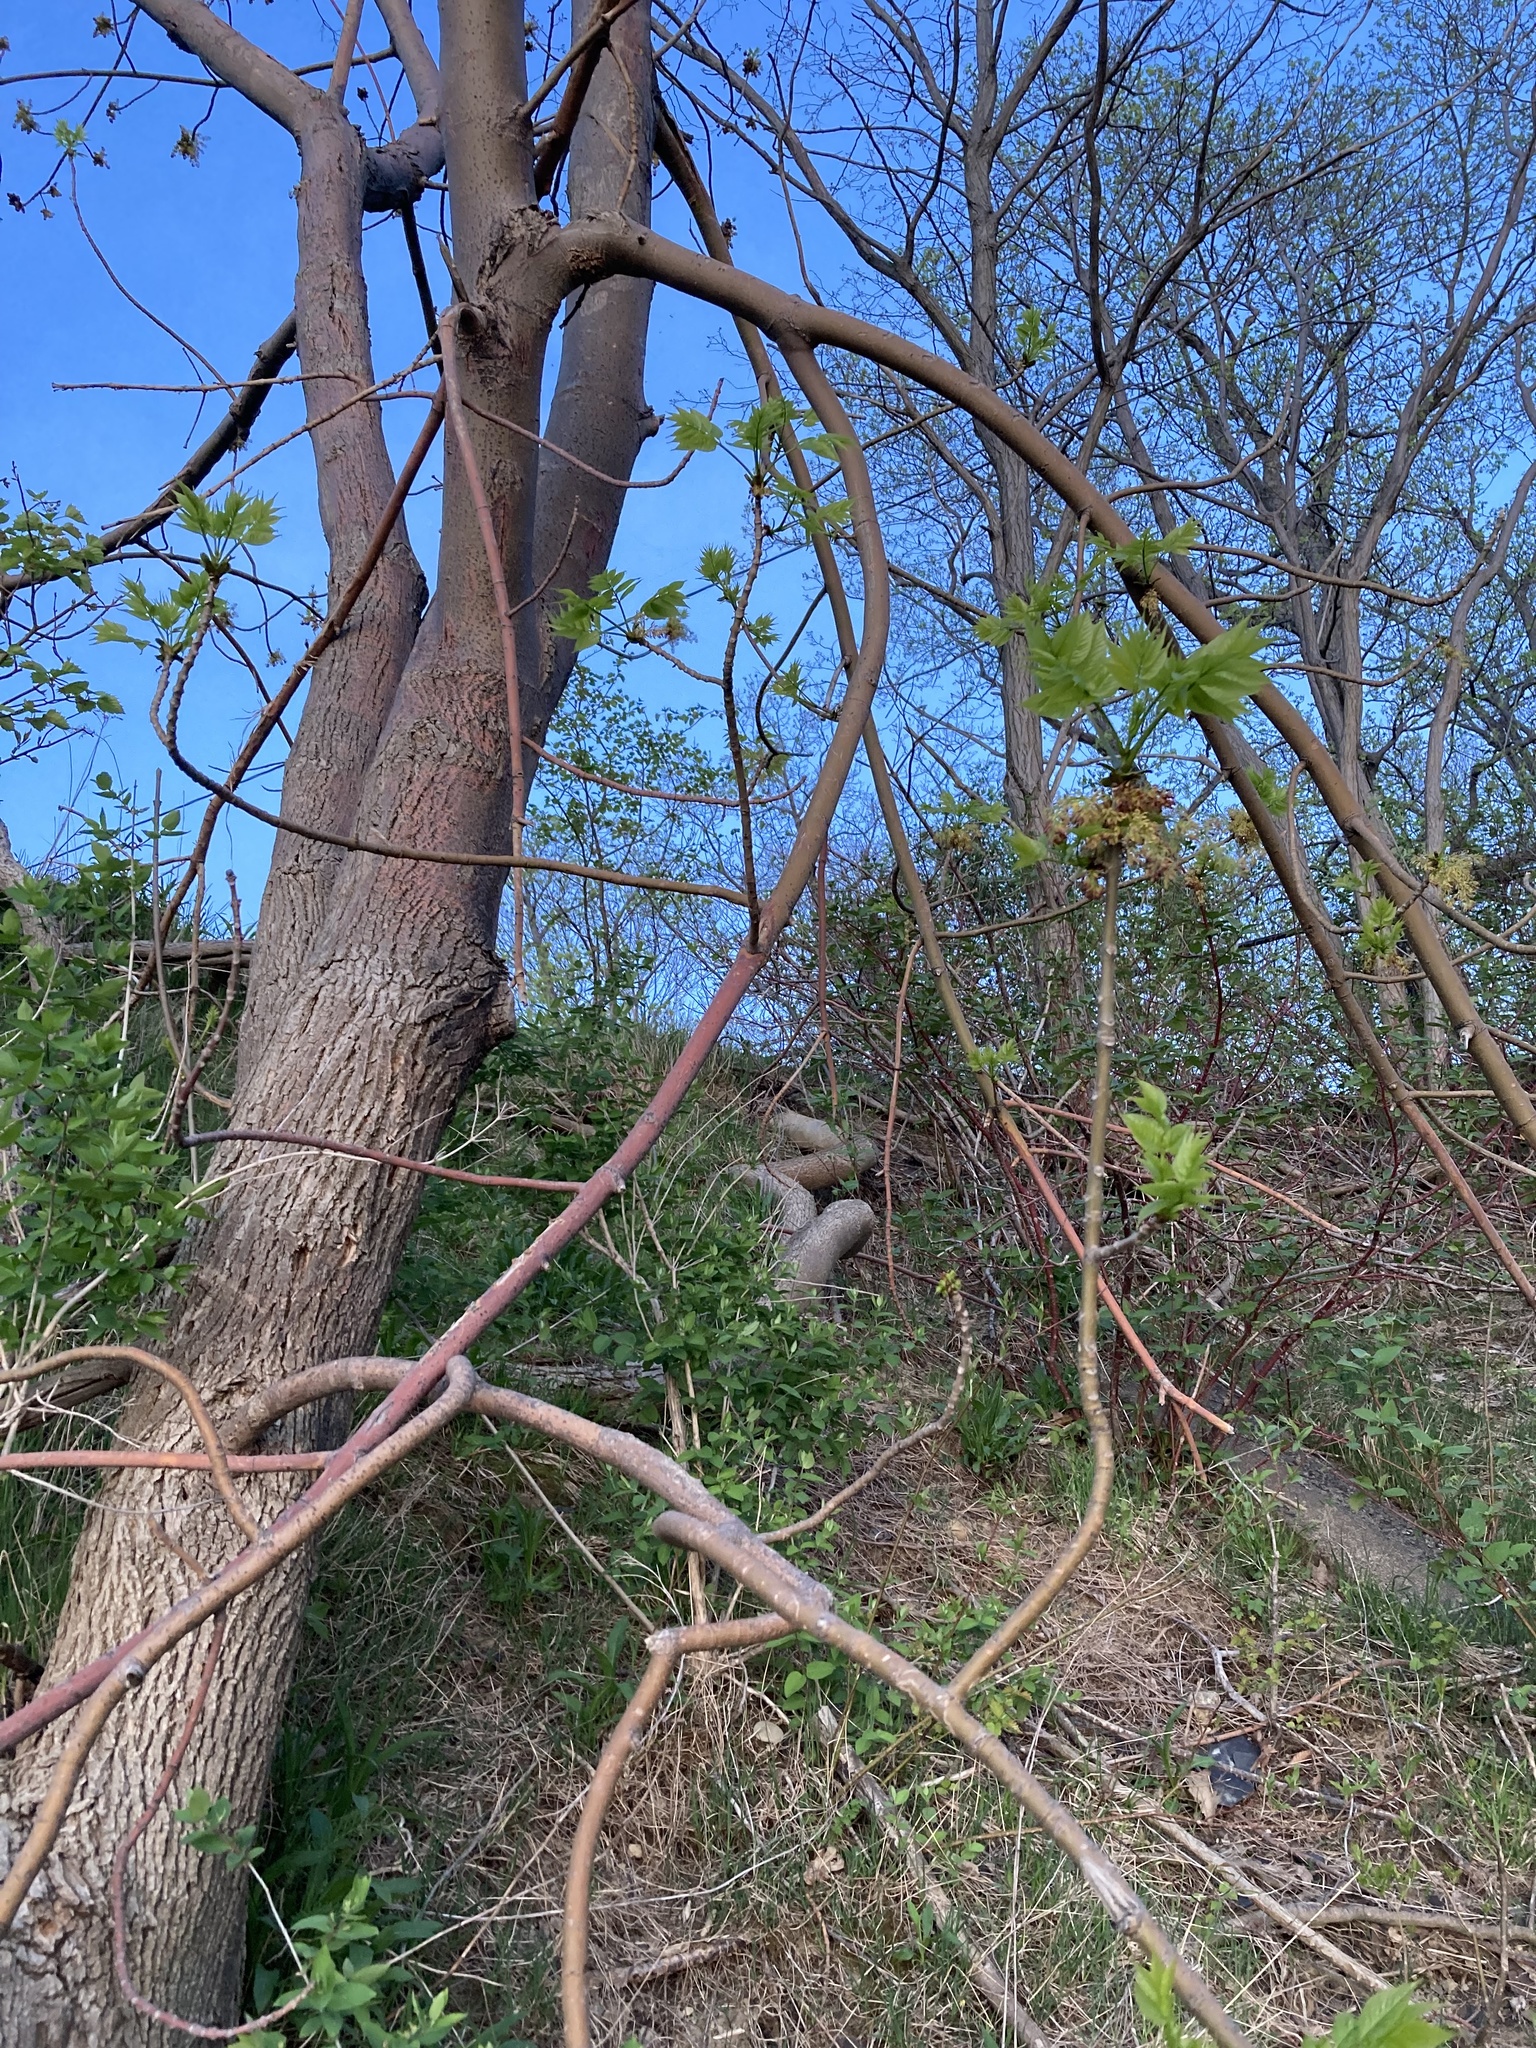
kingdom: Plantae
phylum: Tracheophyta
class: Magnoliopsida
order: Lamiales
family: Oleaceae
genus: Fraxinus
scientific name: Fraxinus pennsylvanica
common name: Green ash
